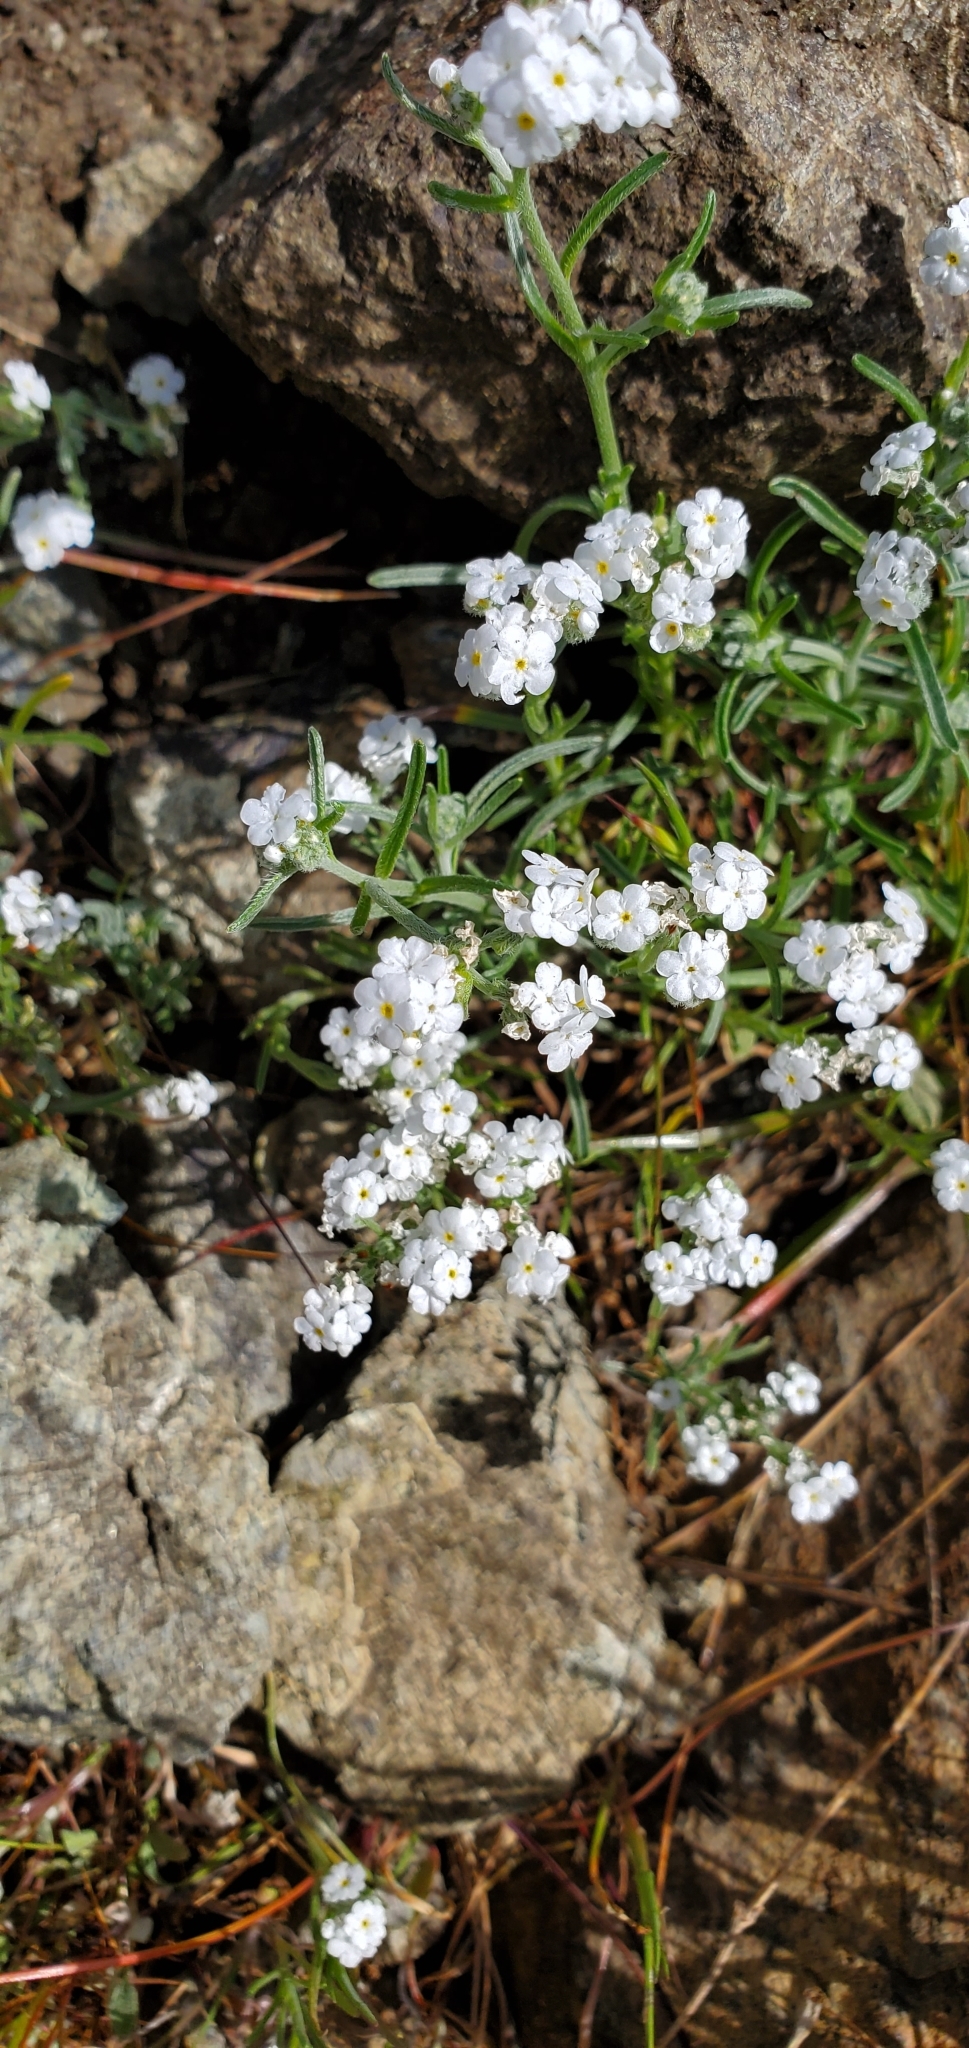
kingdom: Plantae
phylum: Tracheophyta
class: Magnoliopsida
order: Boraginales
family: Boraginaceae
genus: Cryptantha
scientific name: Cryptantha flaccida
